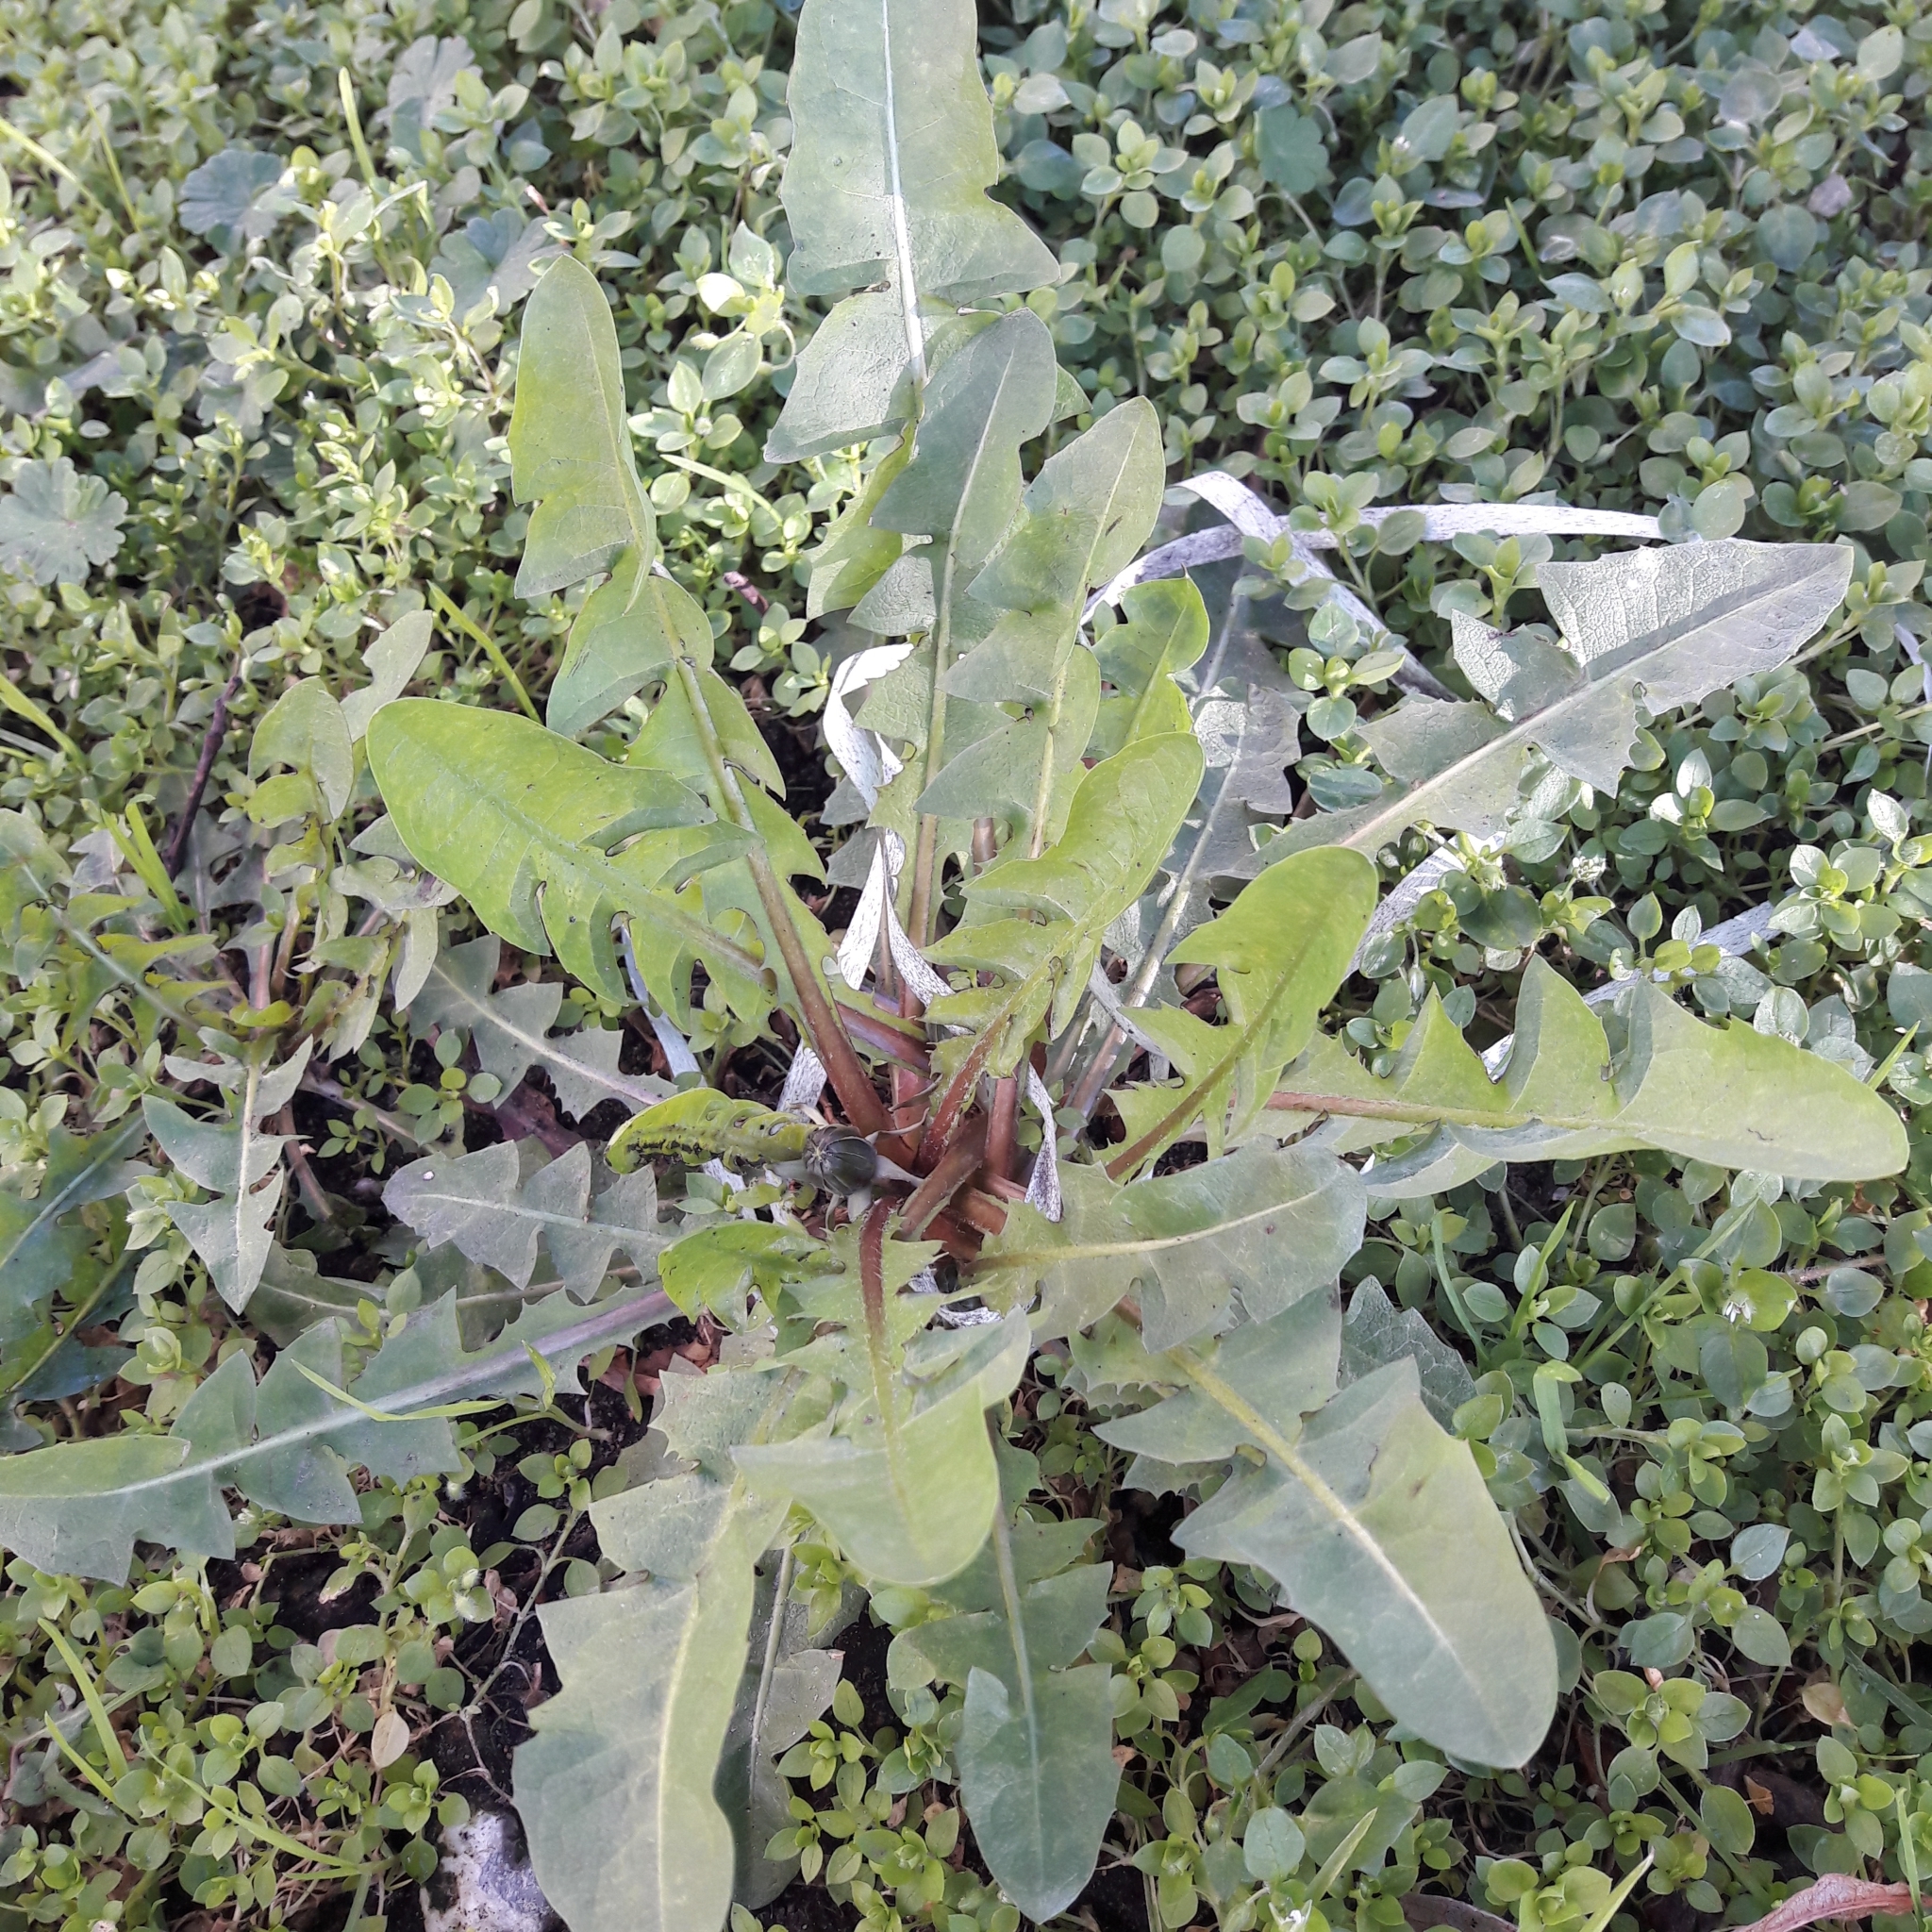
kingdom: Plantae
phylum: Tracheophyta
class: Magnoliopsida
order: Asterales
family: Asteraceae
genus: Taraxacum
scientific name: Taraxacum officinale
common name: Common dandelion
